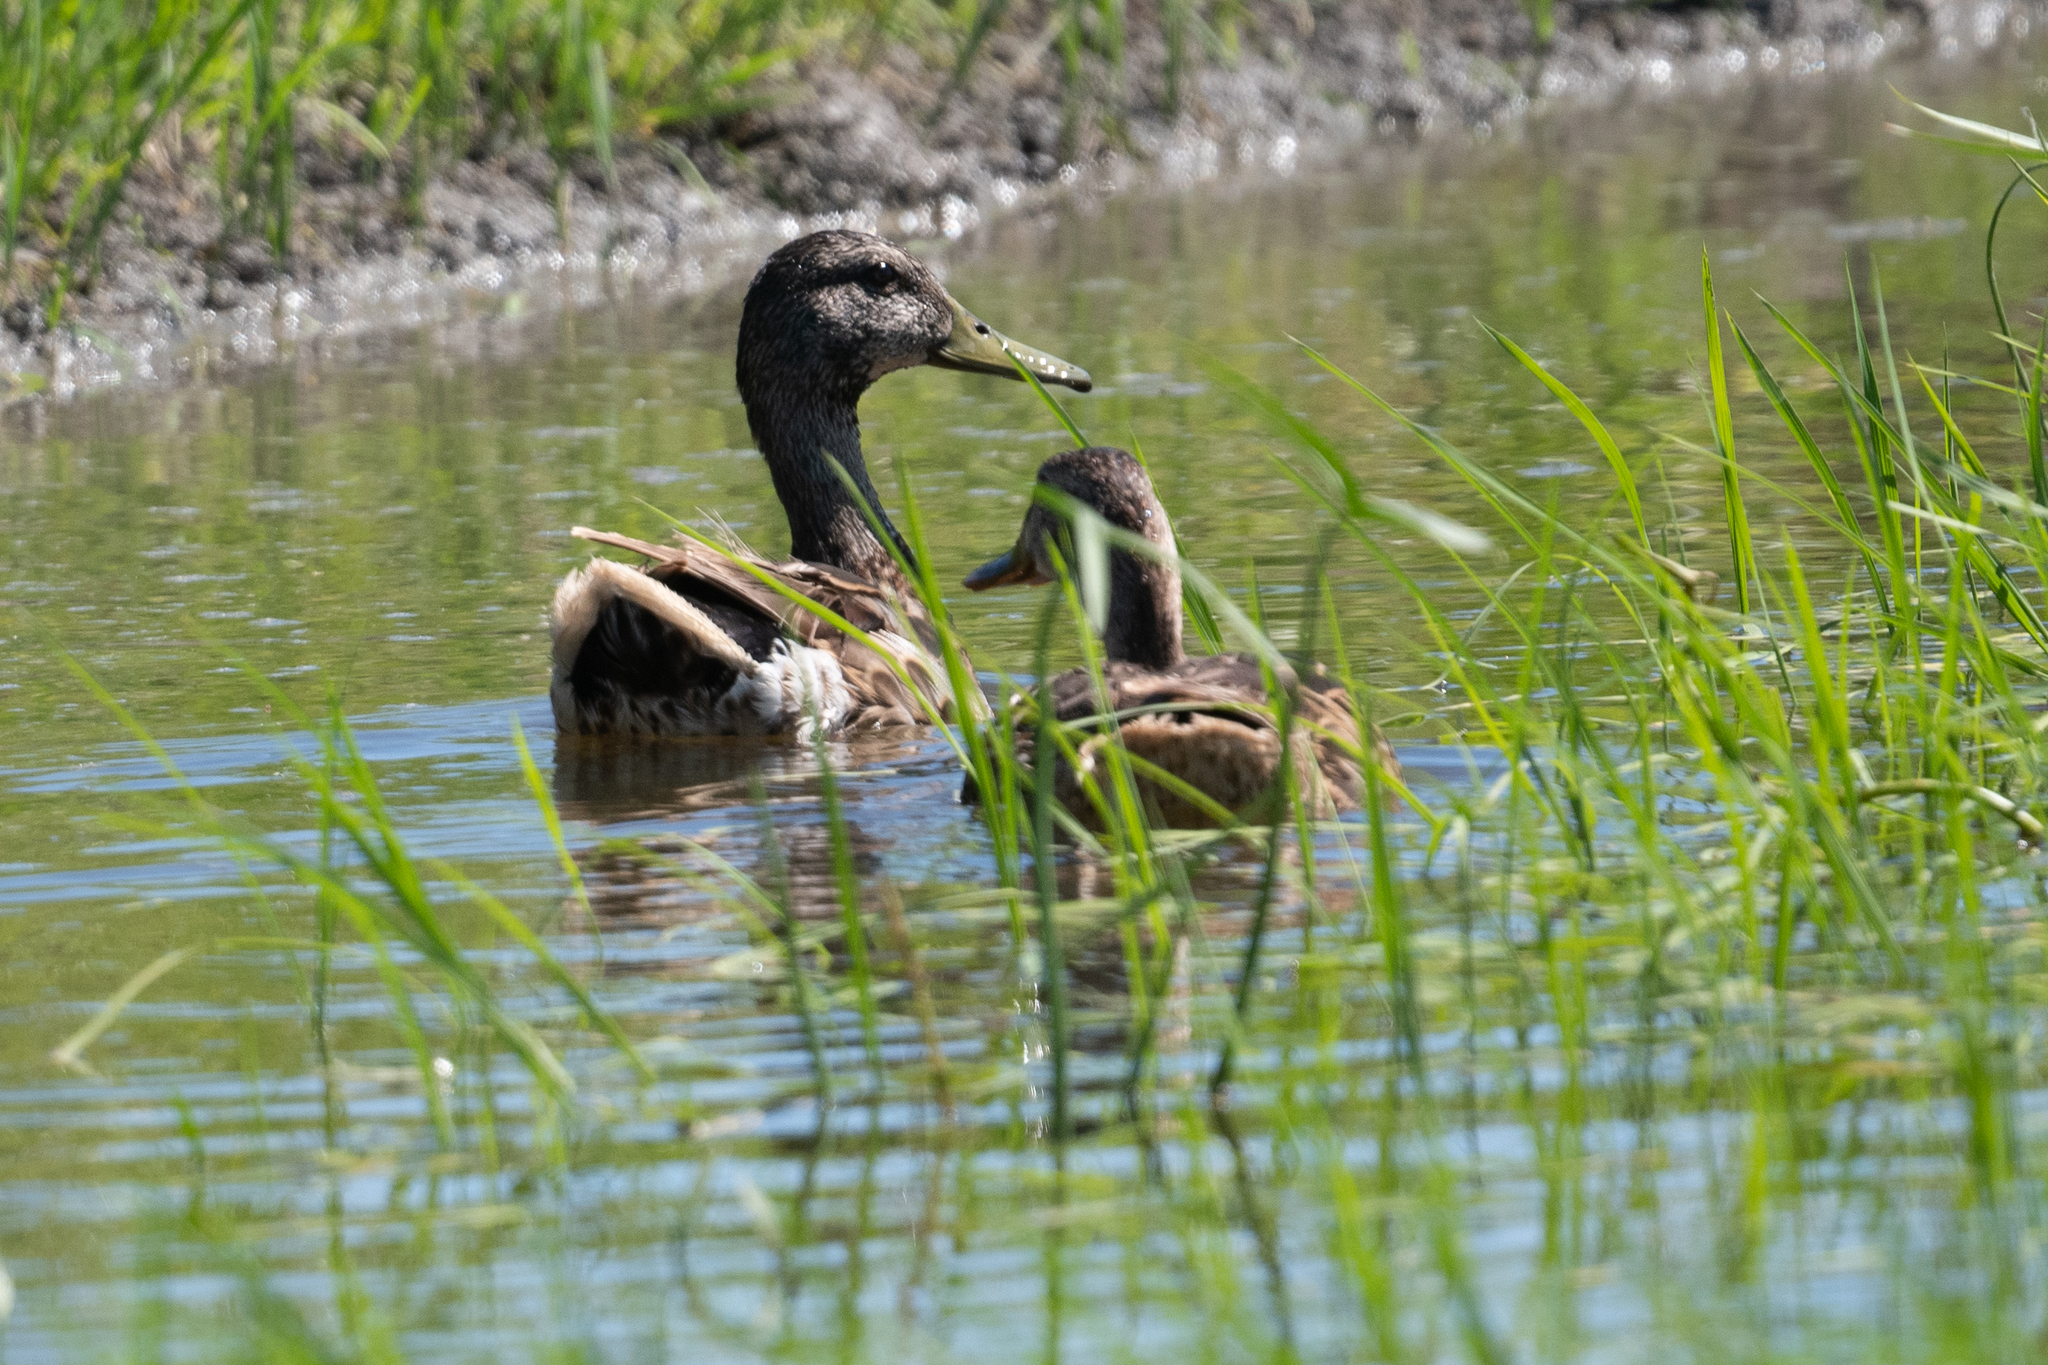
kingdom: Animalia
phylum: Chordata
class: Aves
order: Anseriformes
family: Anatidae
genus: Anas
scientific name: Anas platyrhynchos
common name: Mallard
